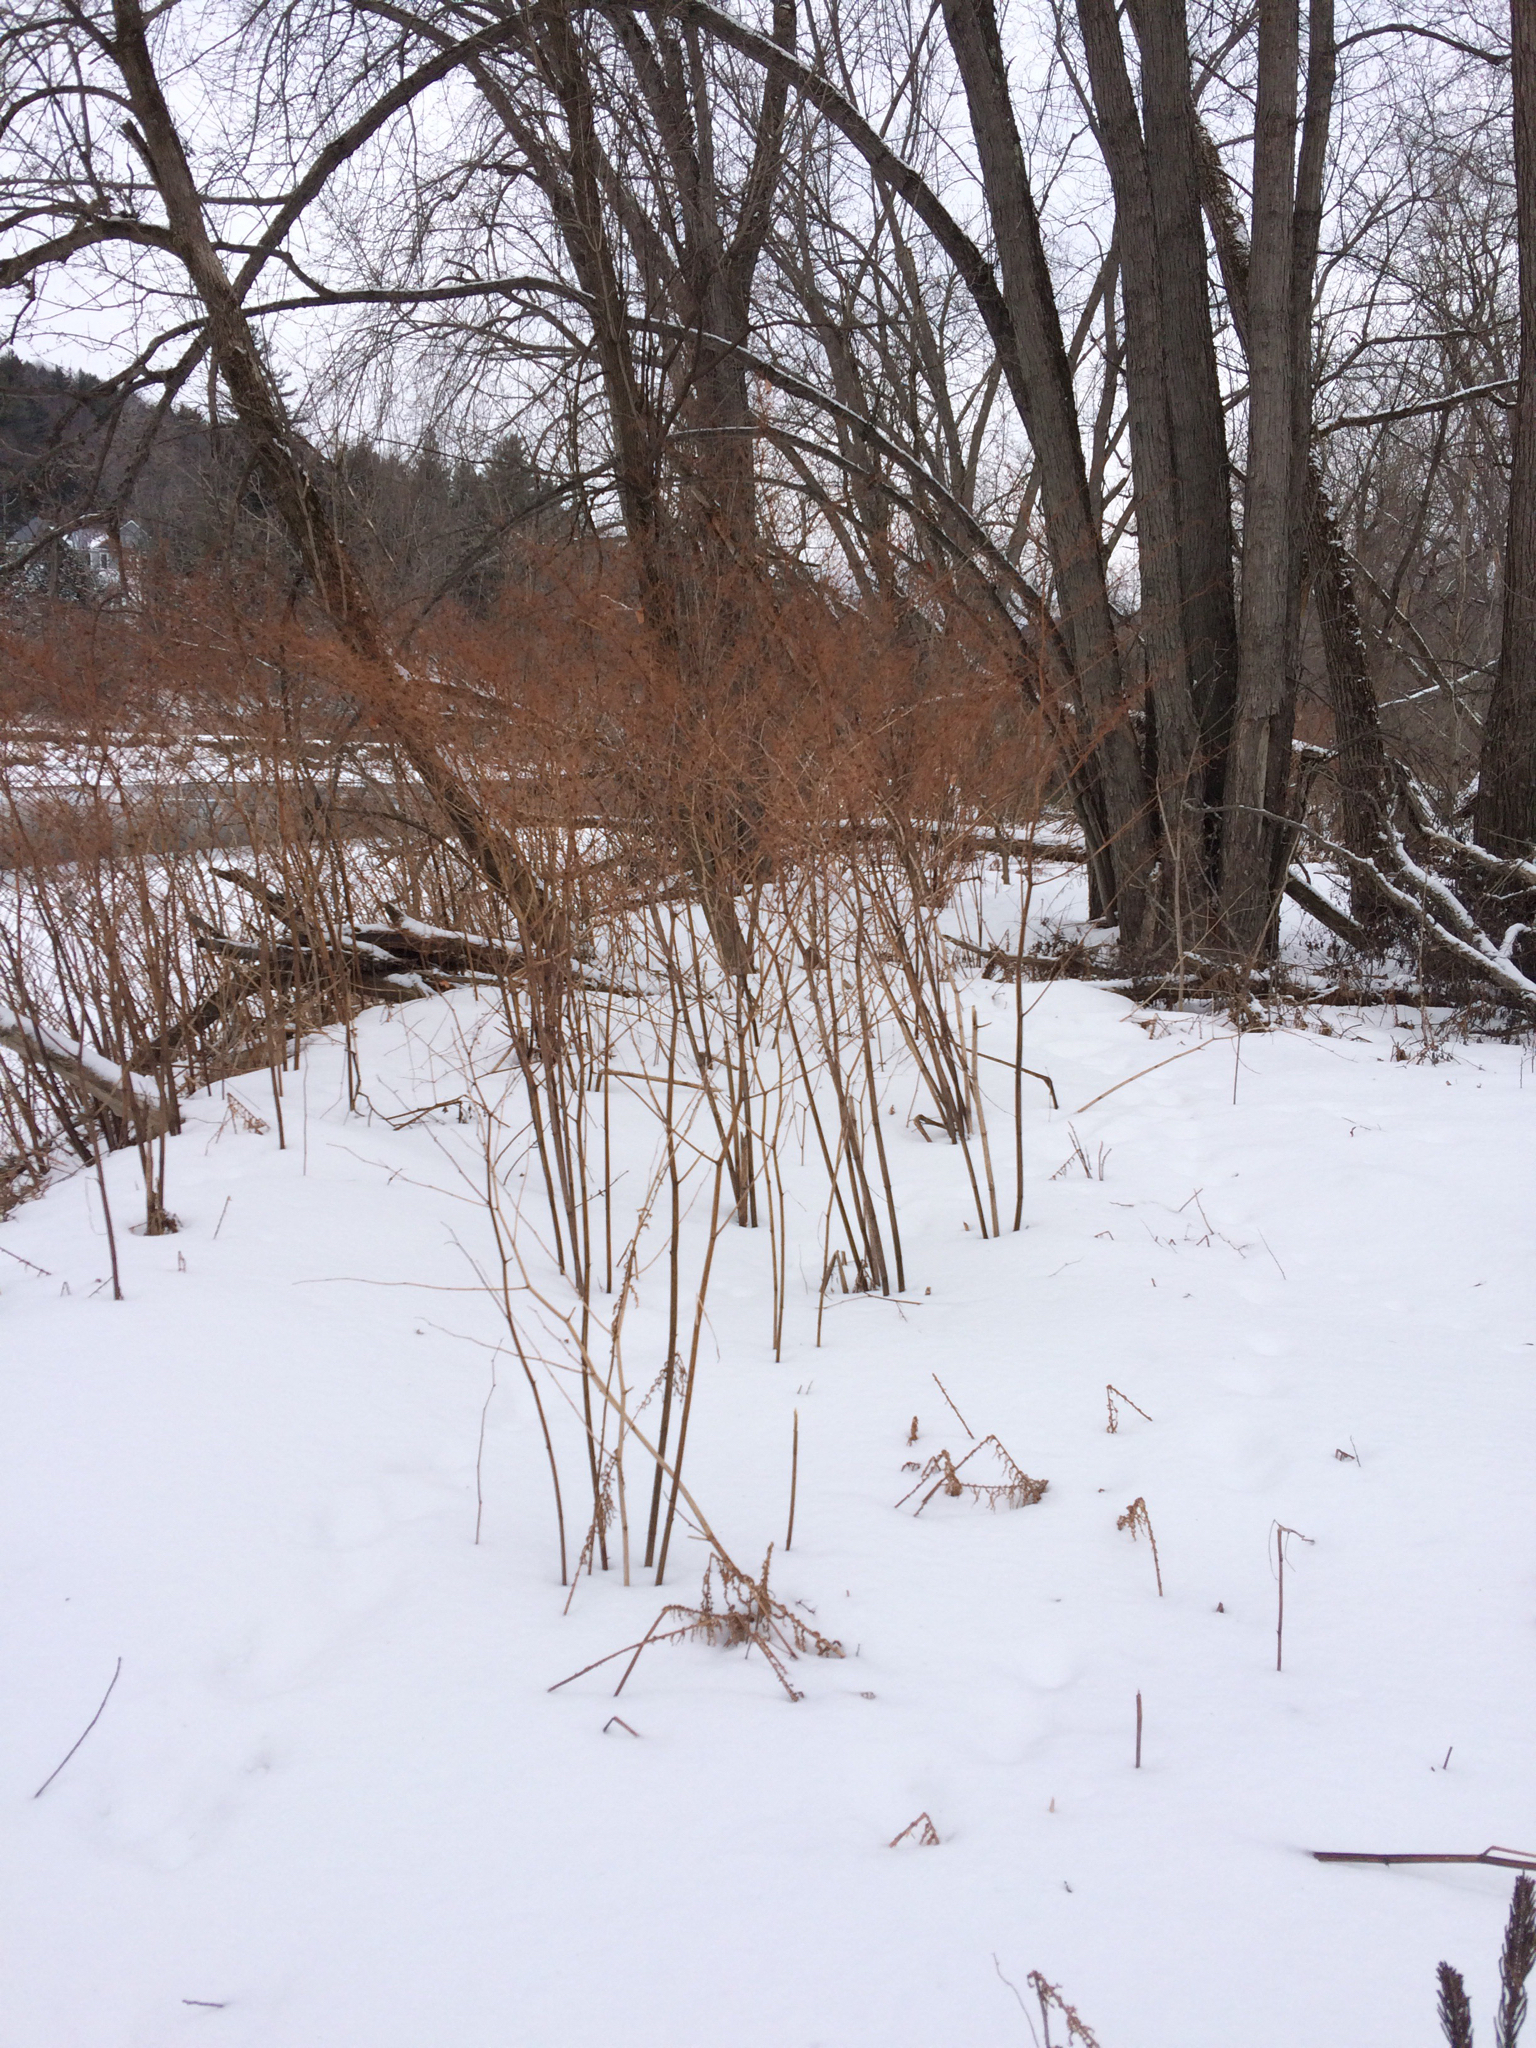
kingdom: Plantae
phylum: Tracheophyta
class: Magnoliopsida
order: Caryophyllales
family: Polygonaceae
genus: Reynoutria
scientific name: Reynoutria japonica
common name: Japanese knotweed
